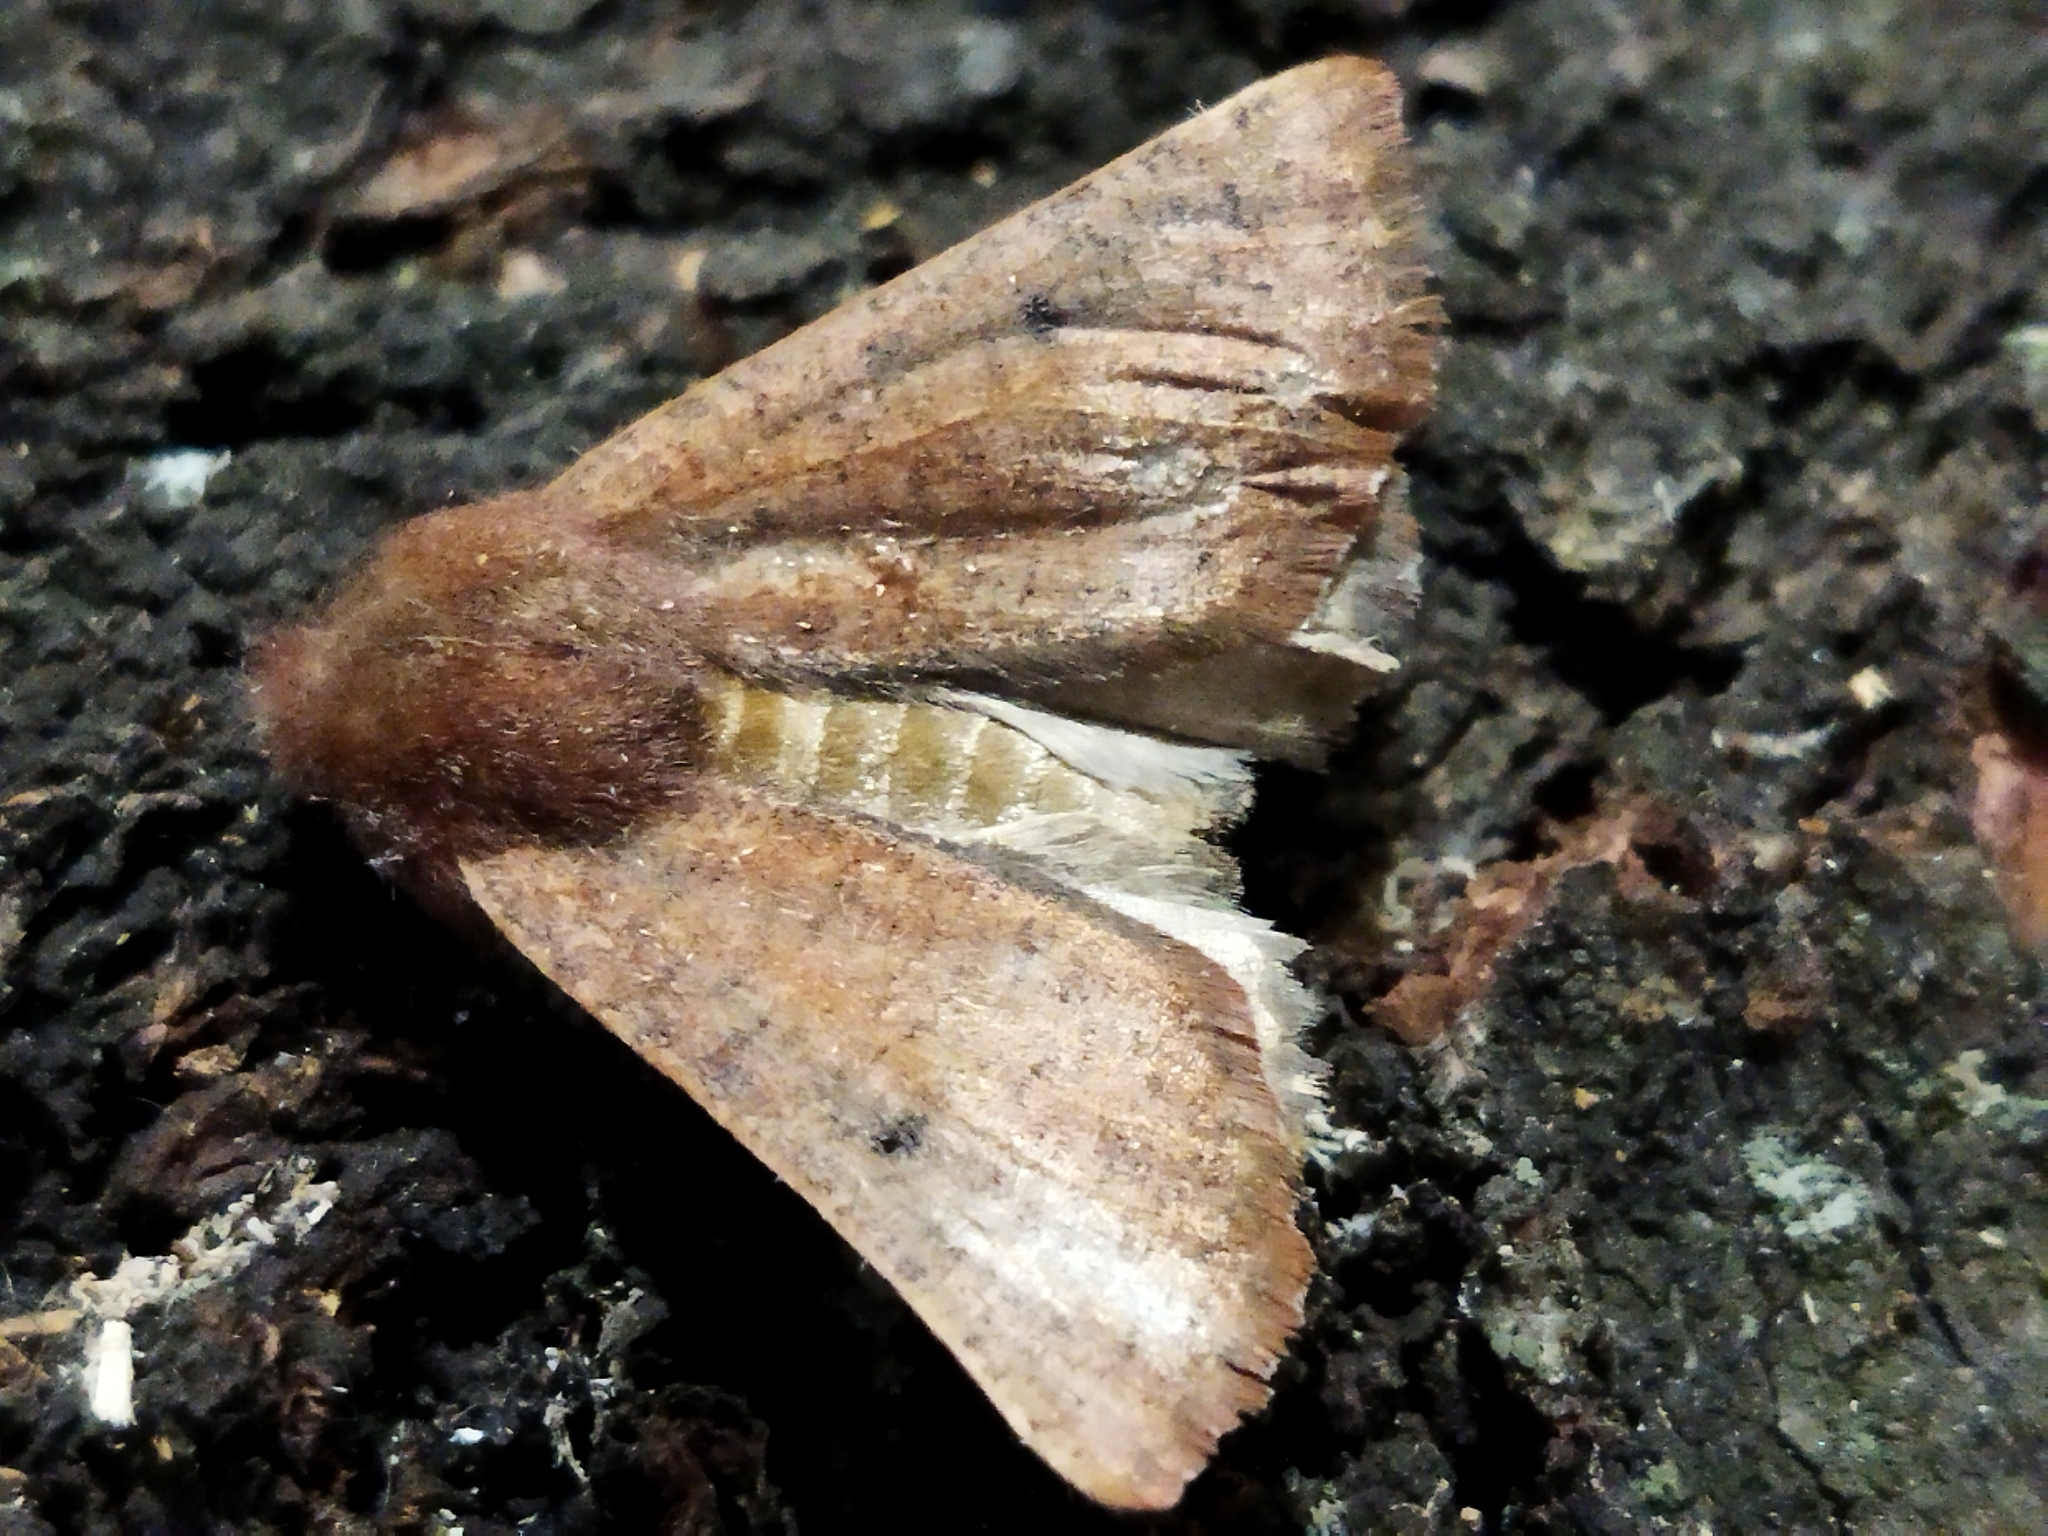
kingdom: Animalia
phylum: Arthropoda
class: Insecta
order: Lepidoptera
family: Geometridae
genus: Dasycorsa
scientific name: Dasycorsa modesta
